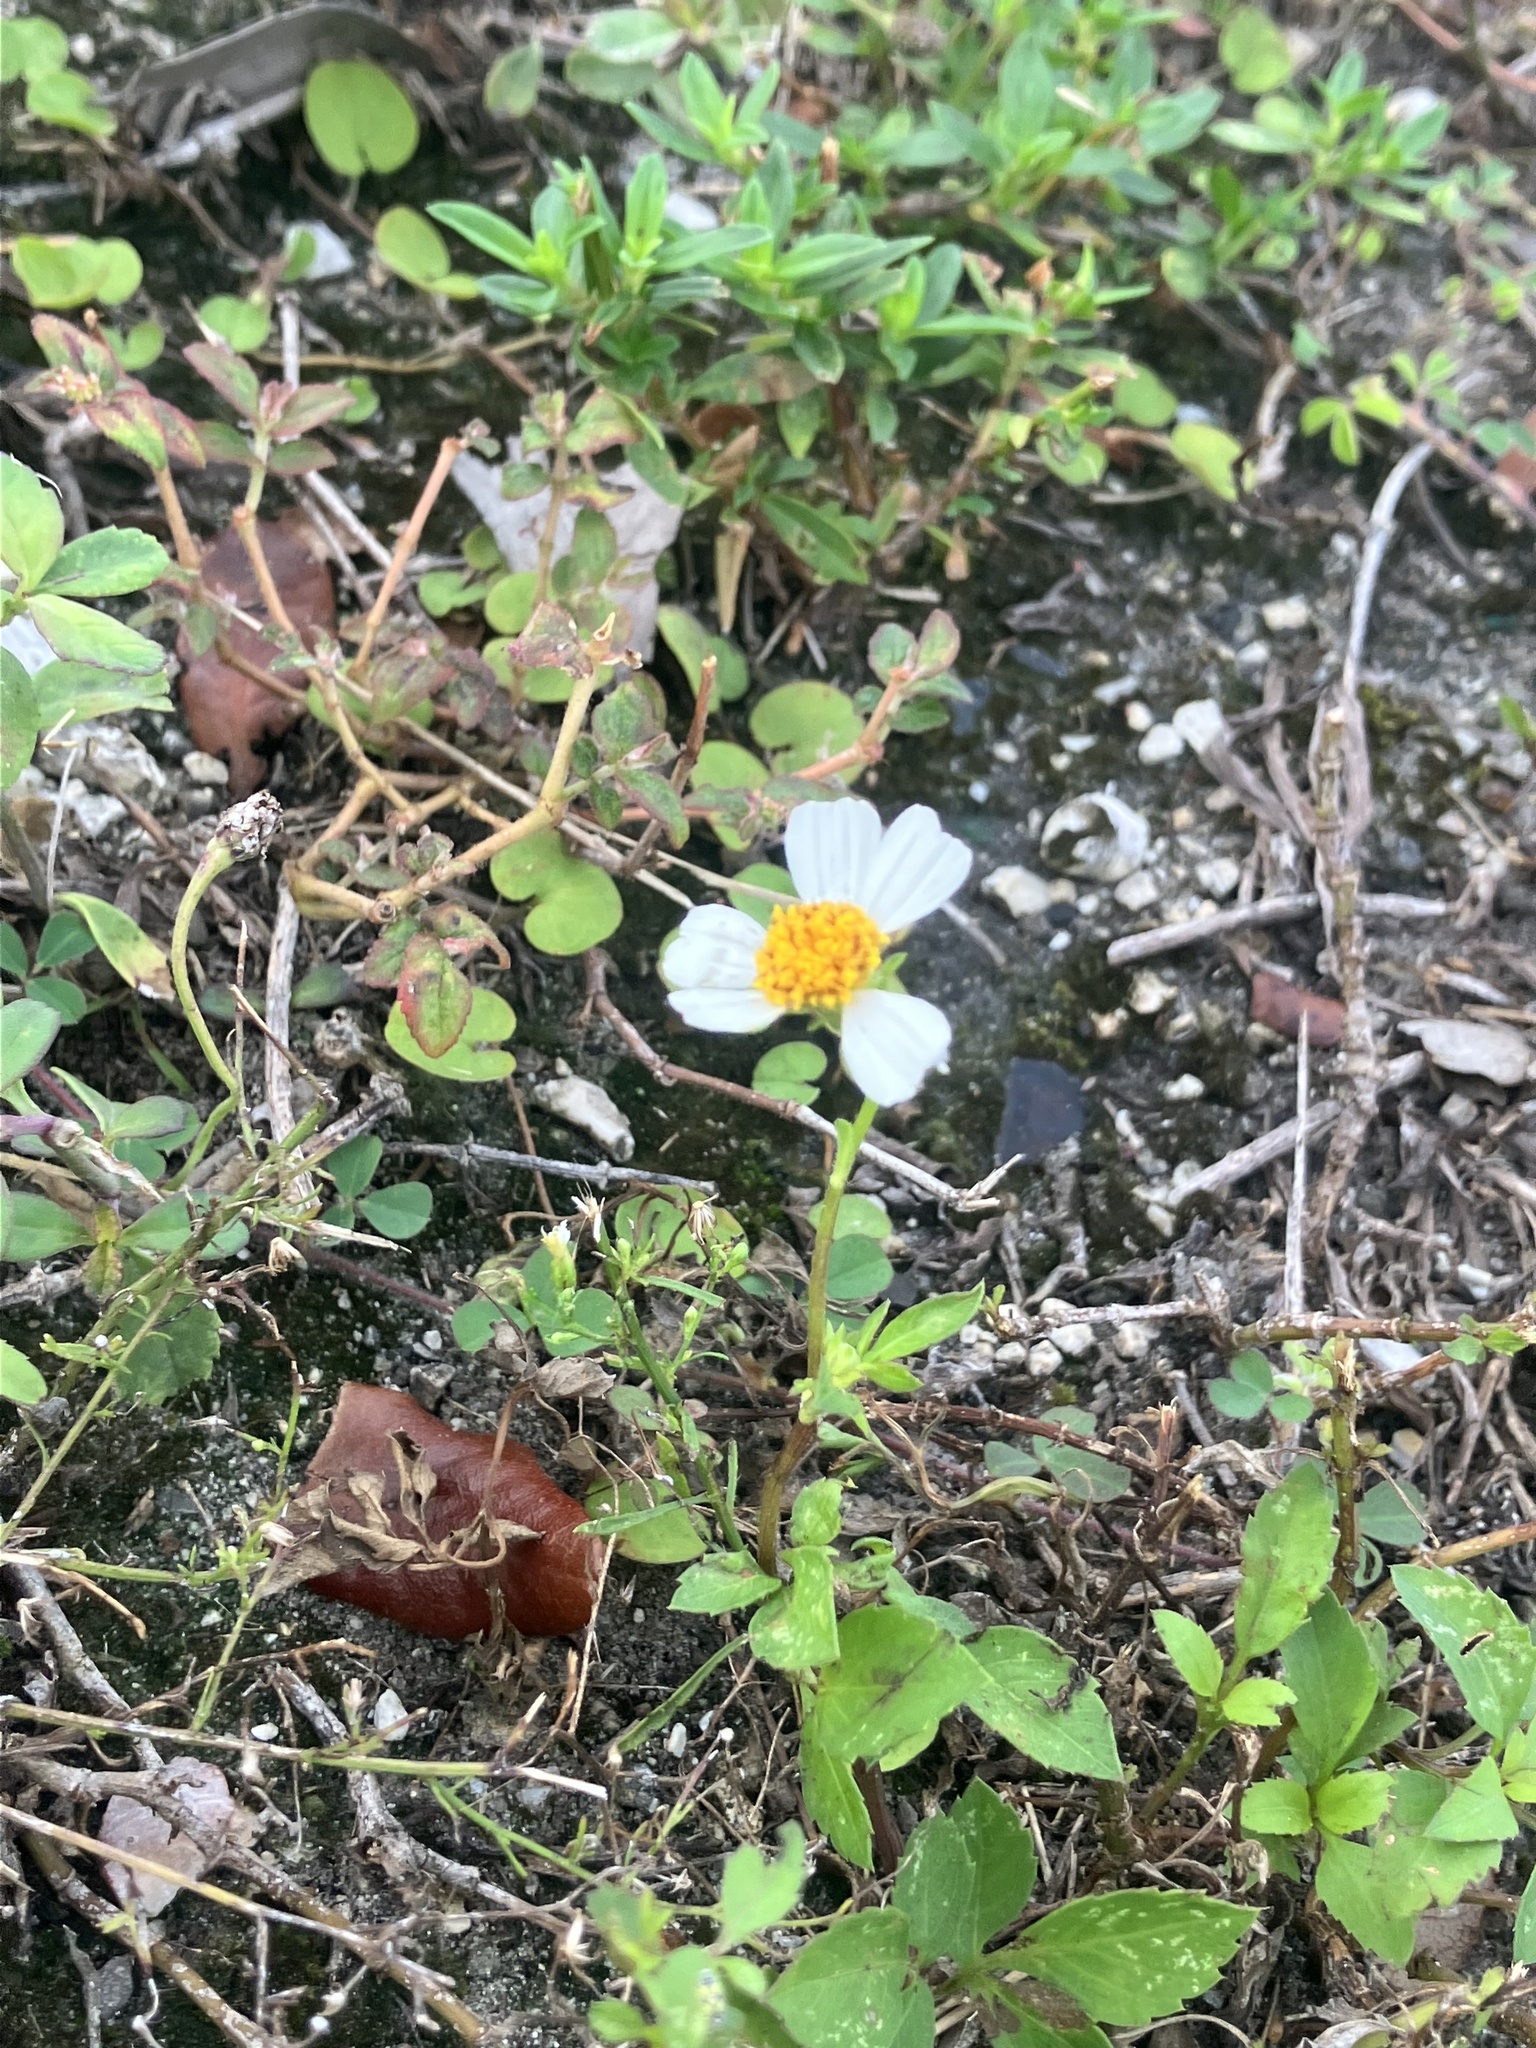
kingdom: Plantae
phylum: Tracheophyta
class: Magnoliopsida
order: Asterales
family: Asteraceae
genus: Bidens
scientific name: Bidens alba
